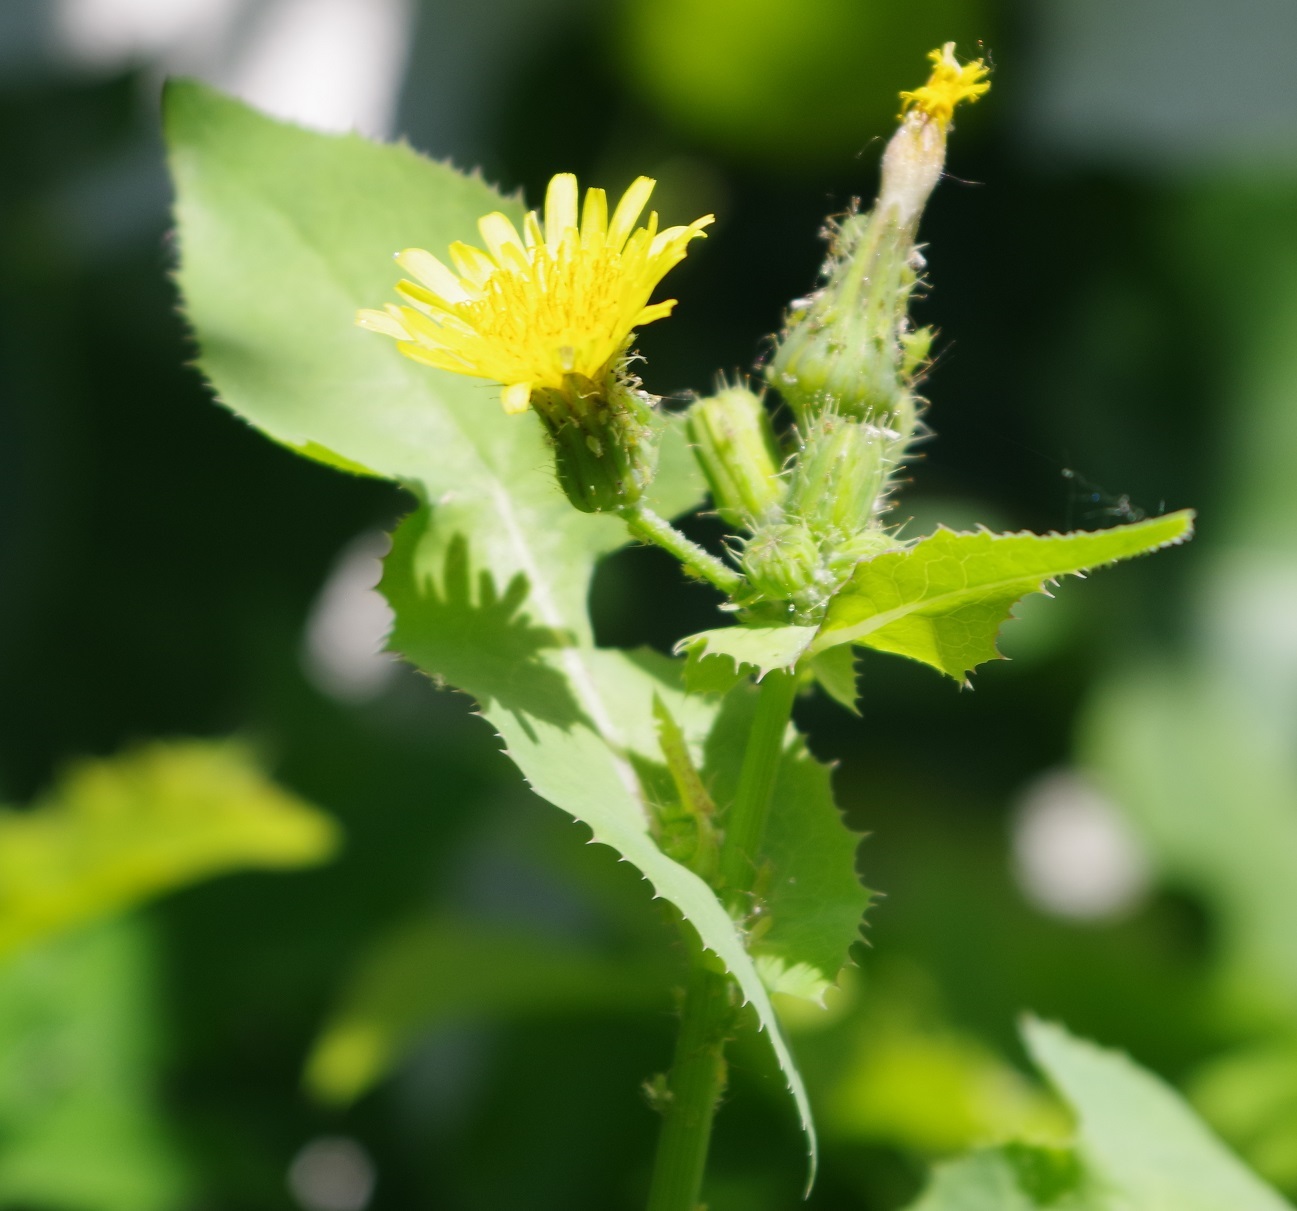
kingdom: Plantae
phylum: Tracheophyta
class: Magnoliopsida
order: Asterales
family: Asteraceae
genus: Sonchus
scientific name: Sonchus oleraceus
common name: Common sowthistle
